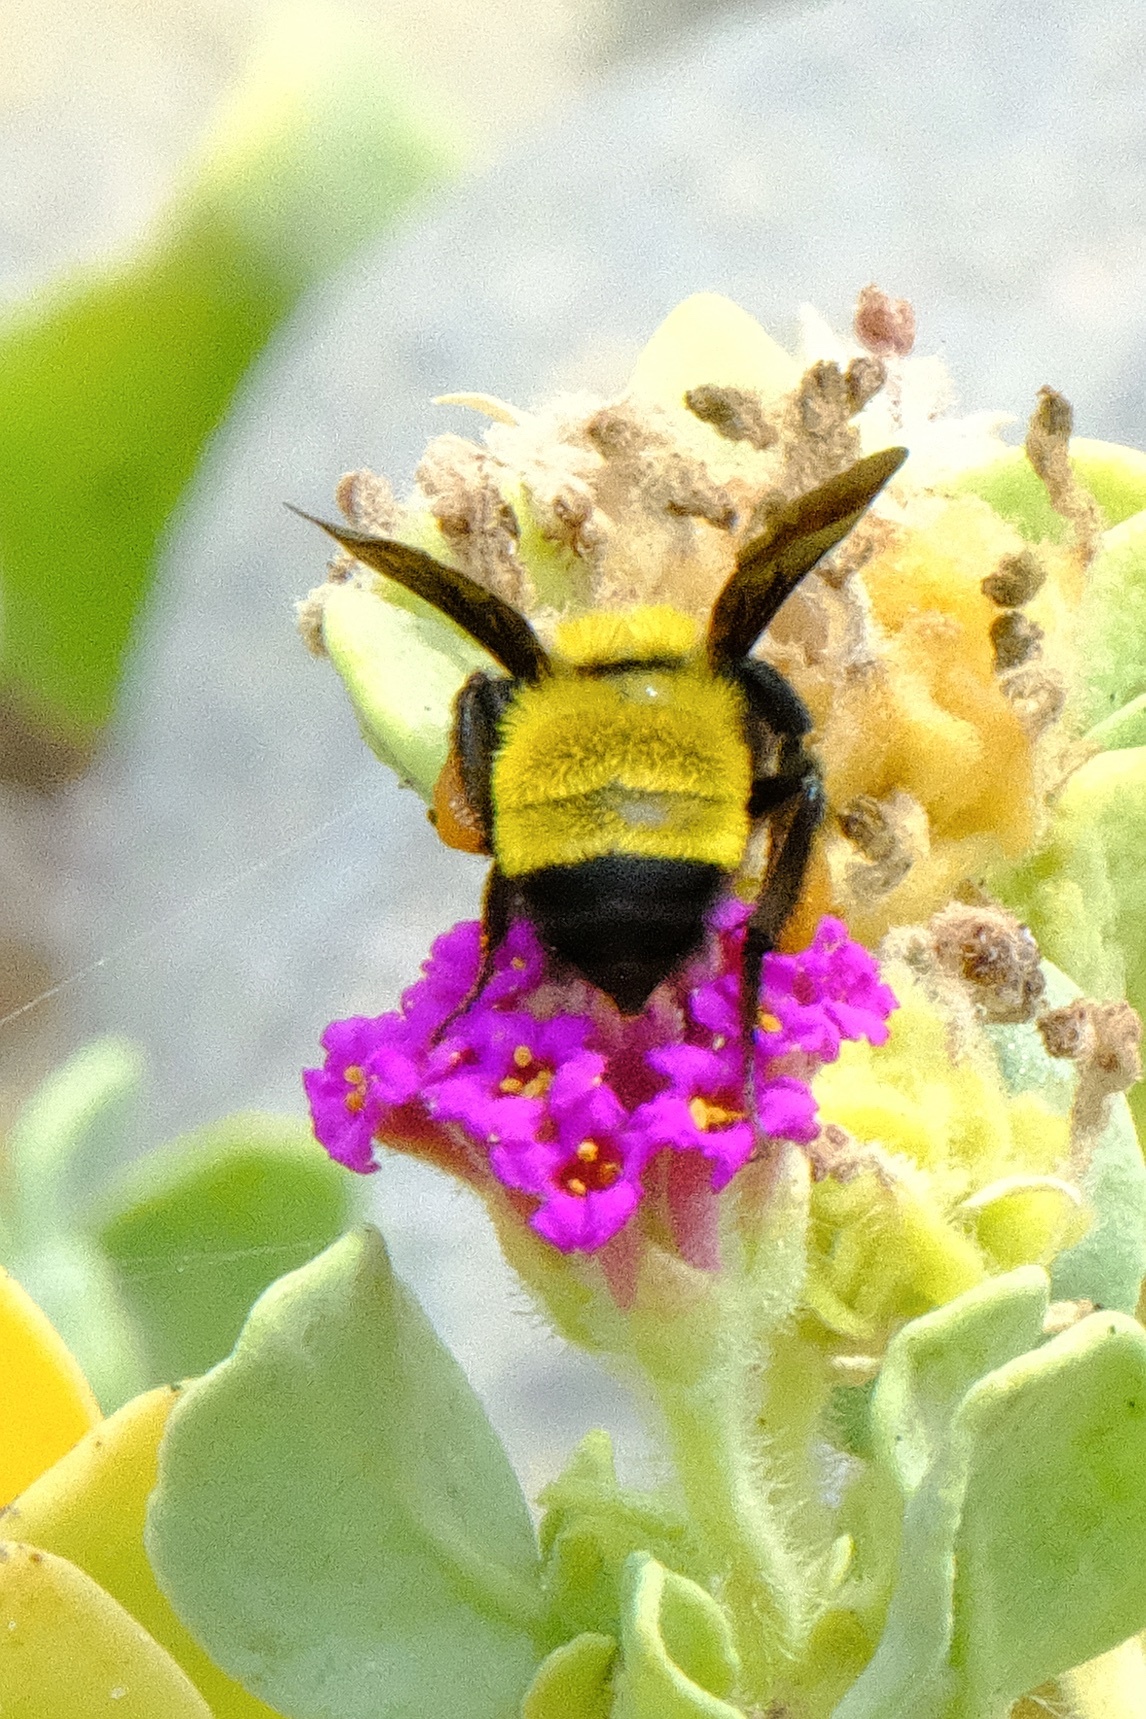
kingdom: Animalia
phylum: Arthropoda
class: Insecta
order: Hymenoptera
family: Apidae
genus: Bombus
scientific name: Bombus sonorus
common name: Sonoran bumble bee
